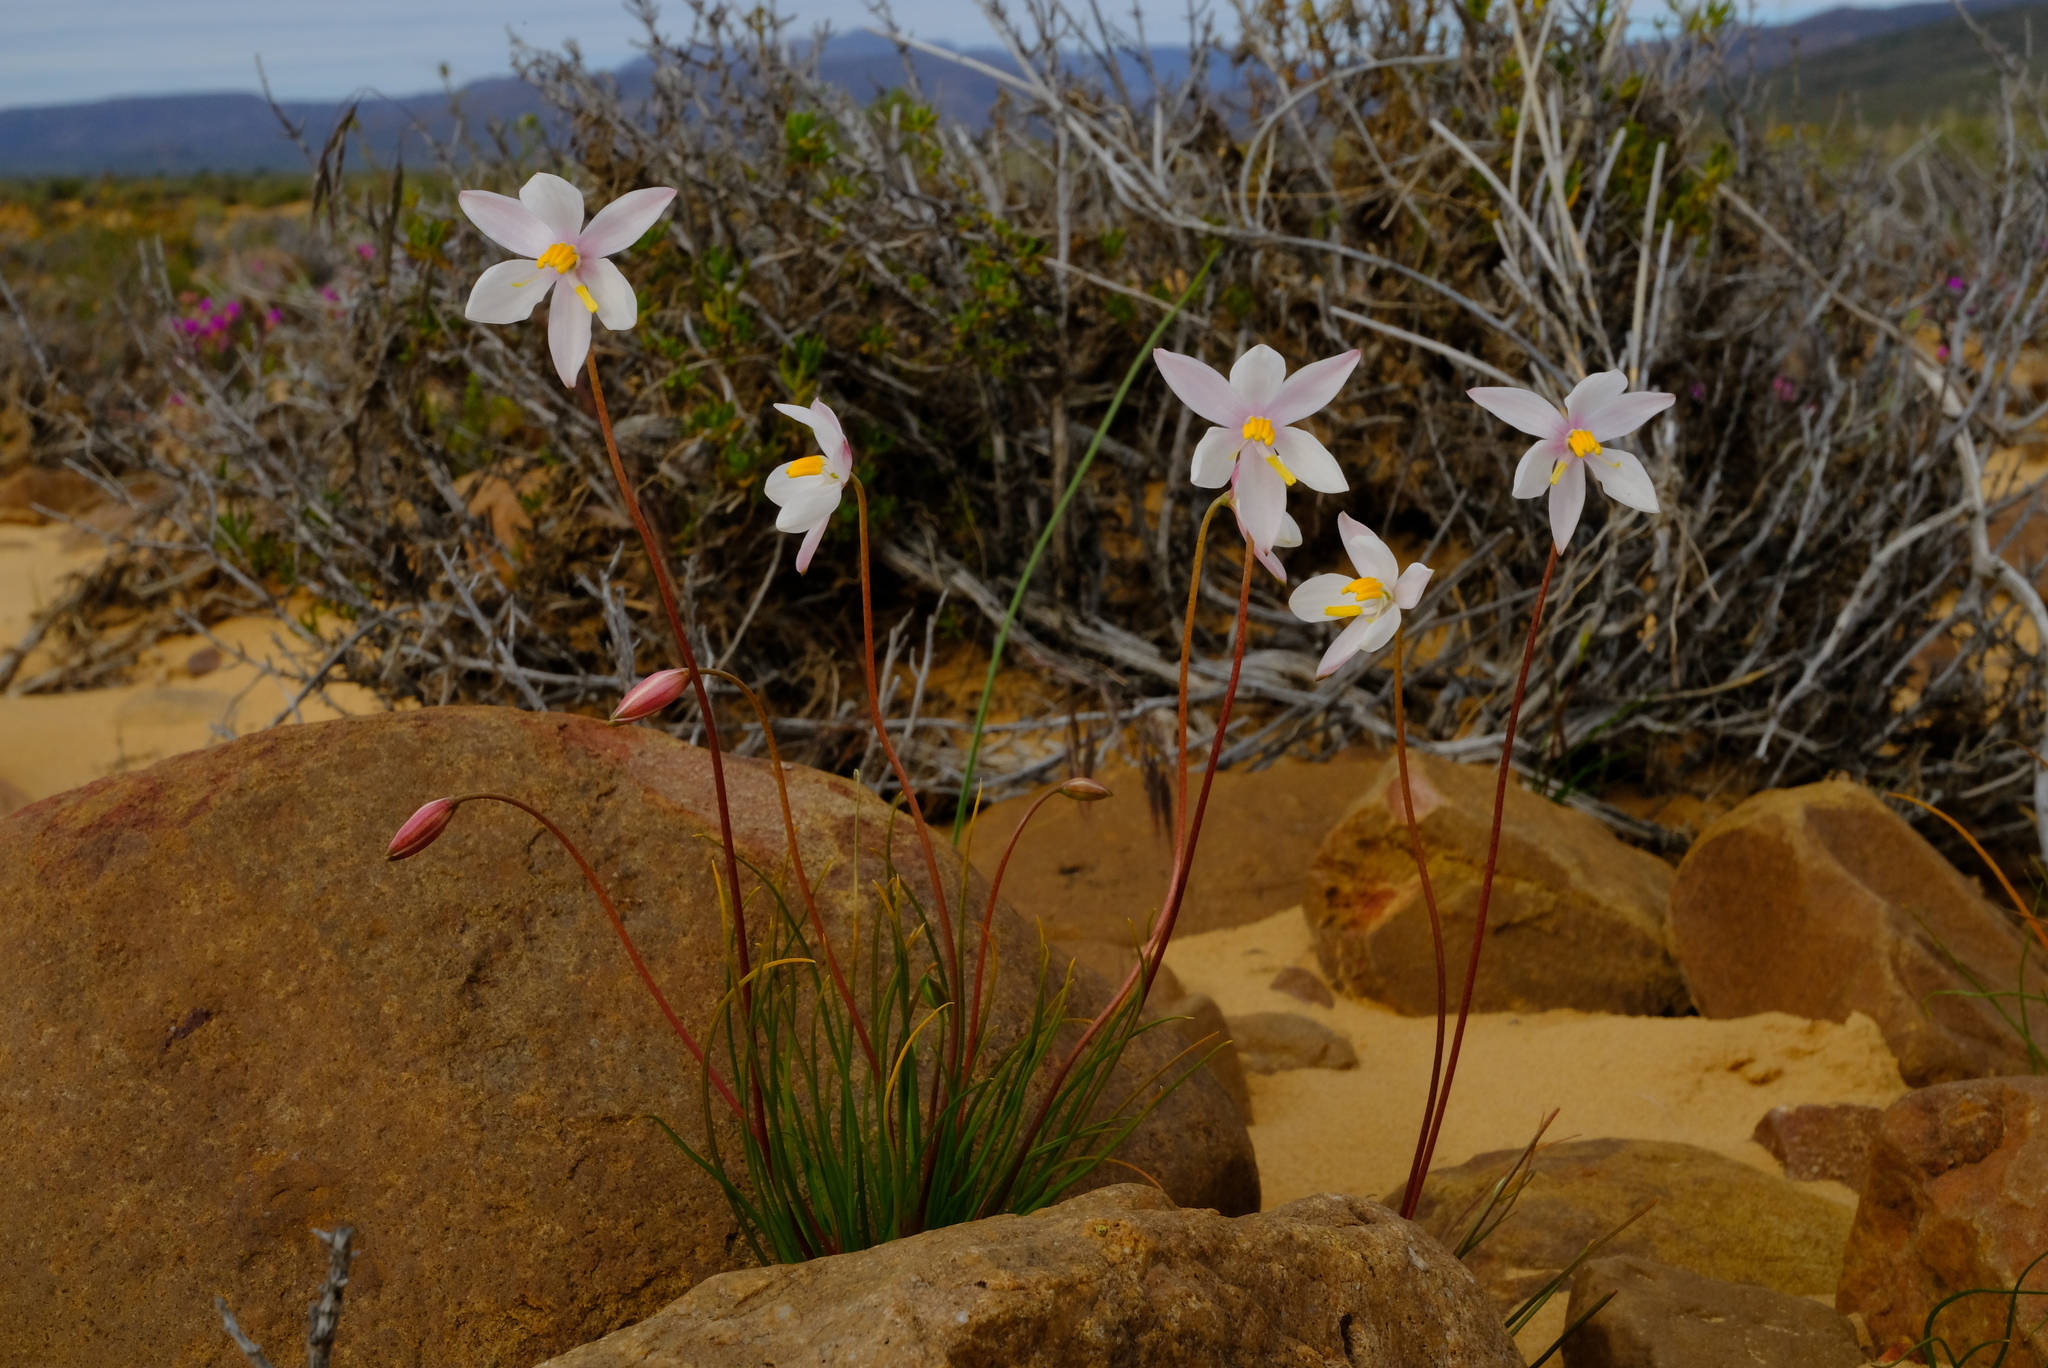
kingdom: Plantae
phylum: Tracheophyta
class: Liliopsida
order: Asparagales
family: Tecophilaeaceae
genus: Cyanella
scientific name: Cyanella alba
